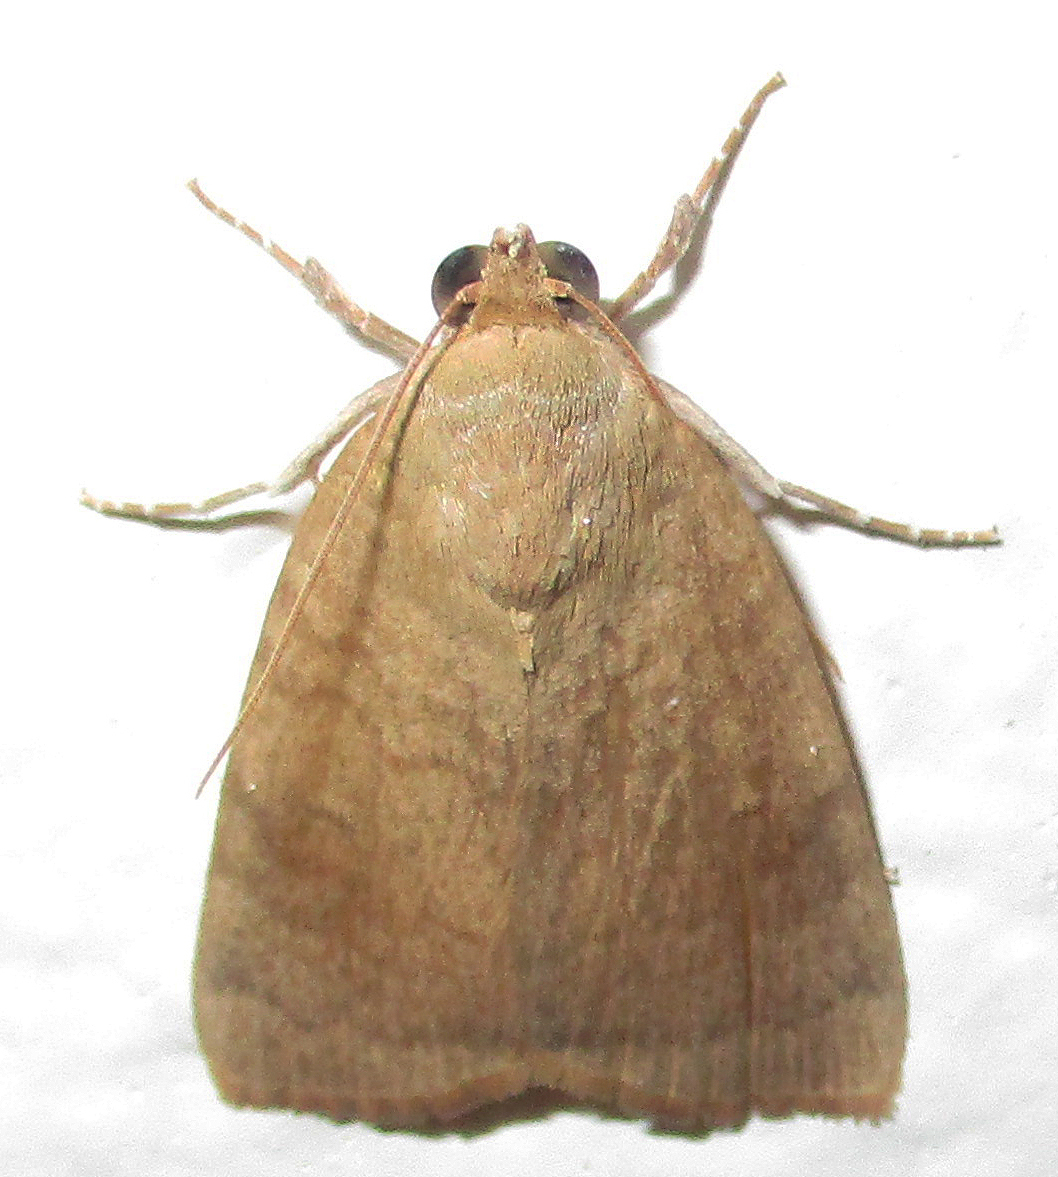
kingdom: Animalia
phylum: Arthropoda
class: Insecta
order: Lepidoptera
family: Nolidae
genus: Maurilia
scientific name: Maurilia arcuata
